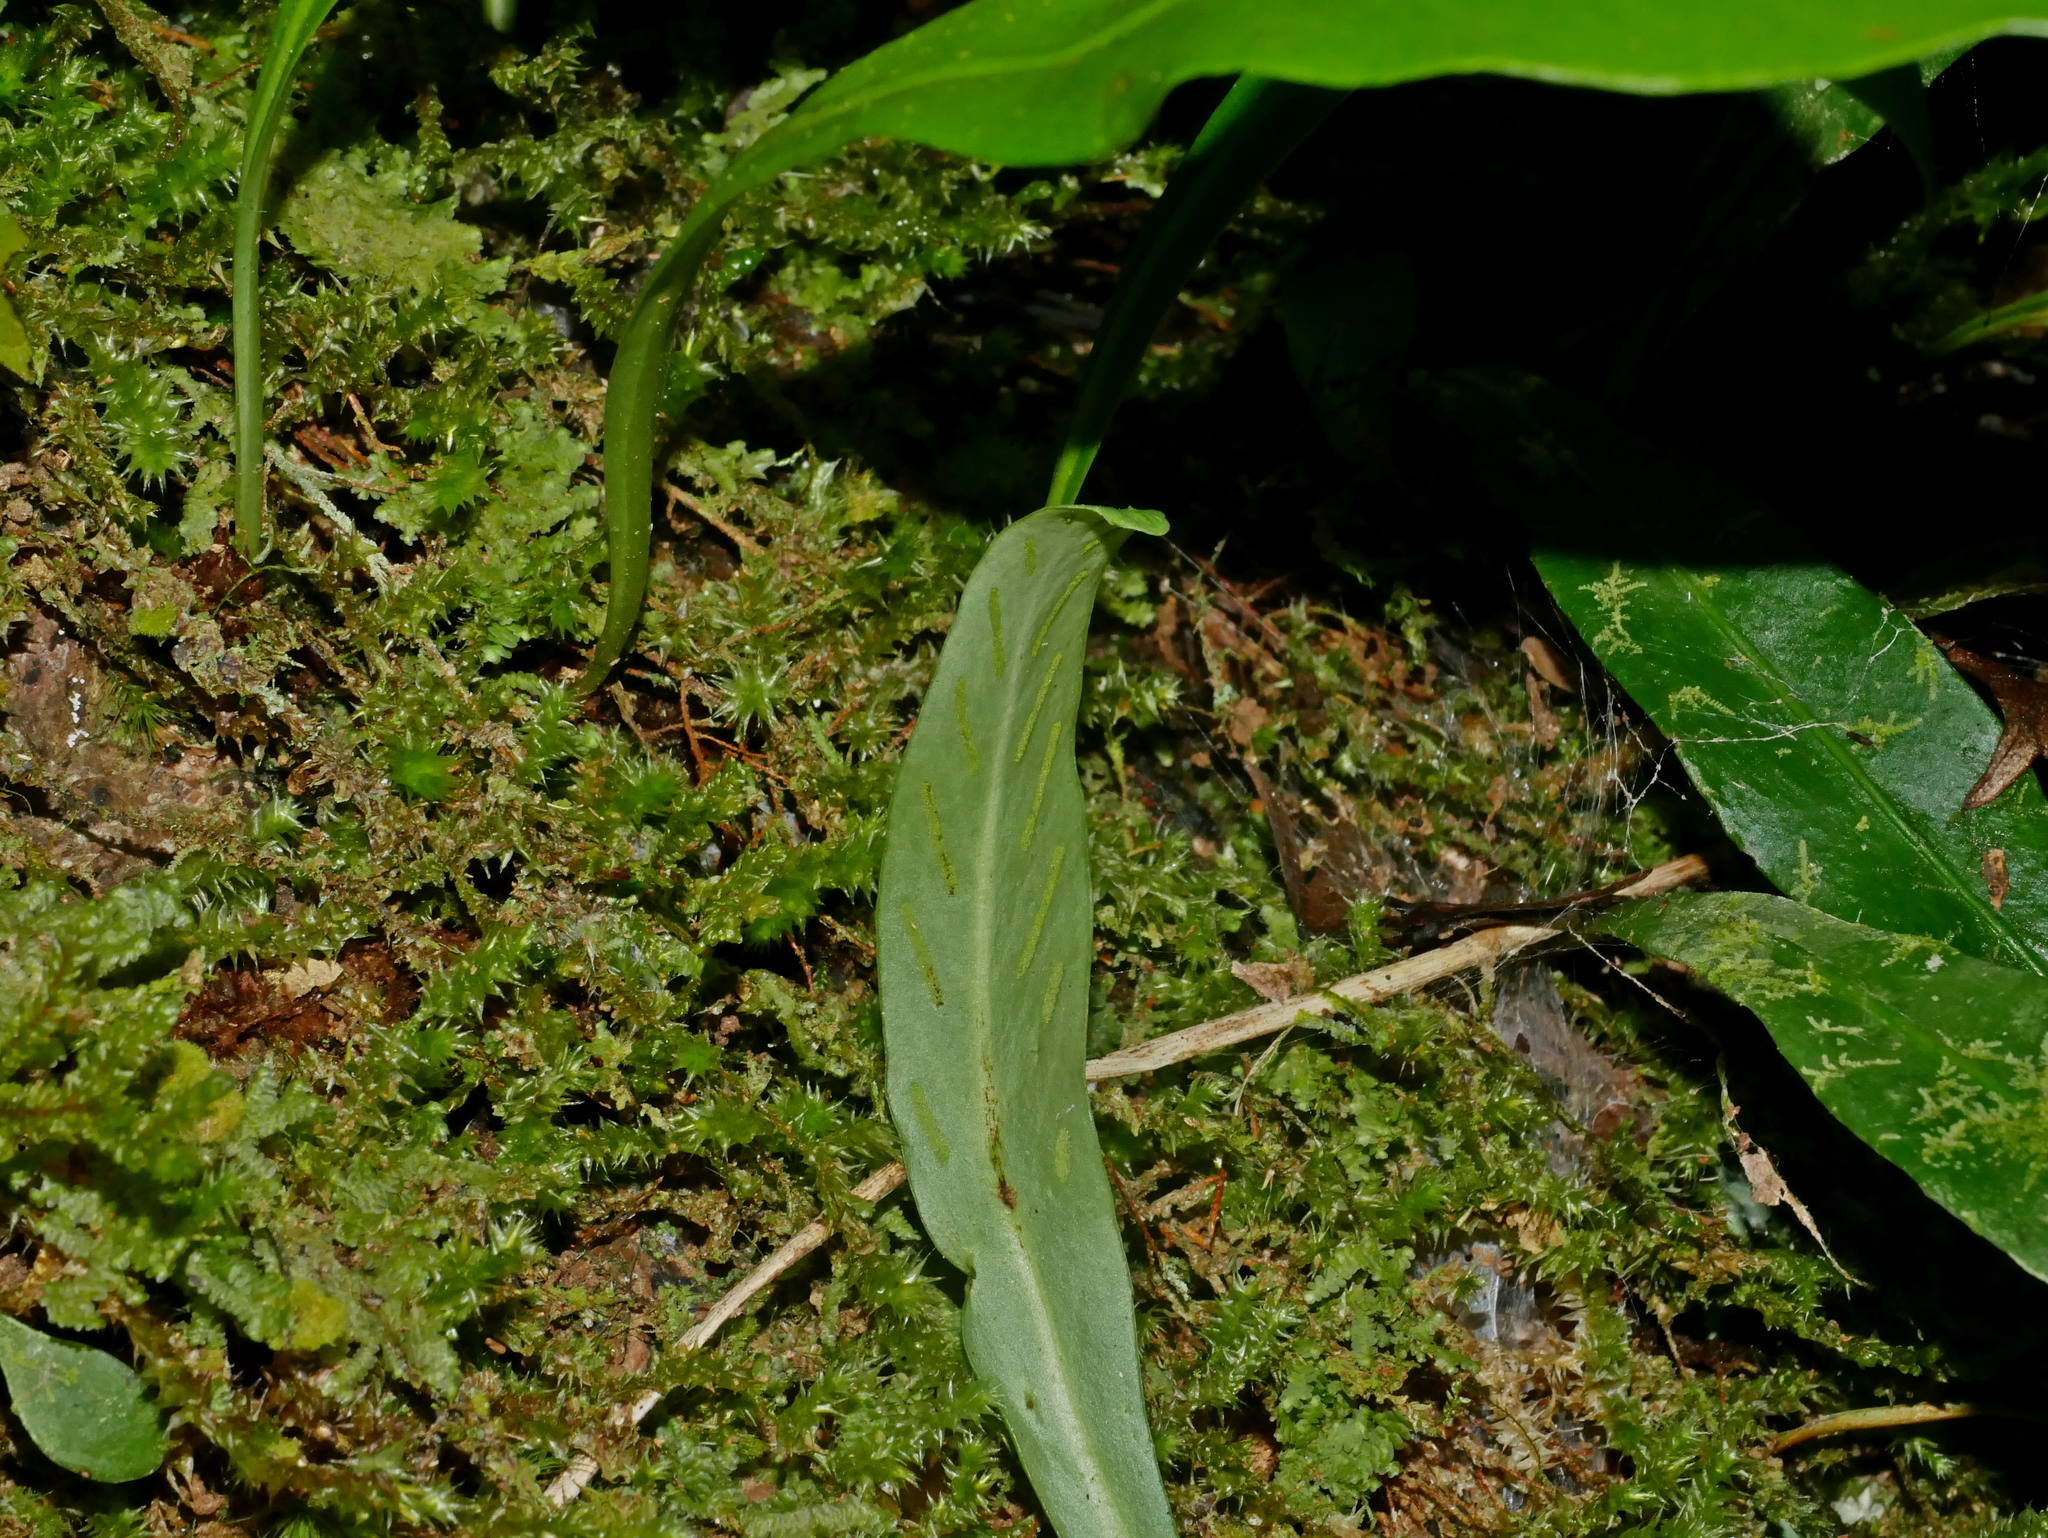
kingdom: Plantae
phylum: Tracheophyta
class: Polypodiopsida
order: Polypodiales
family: Polypodiaceae
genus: Loxogramme
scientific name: Loxogramme salicifolia
